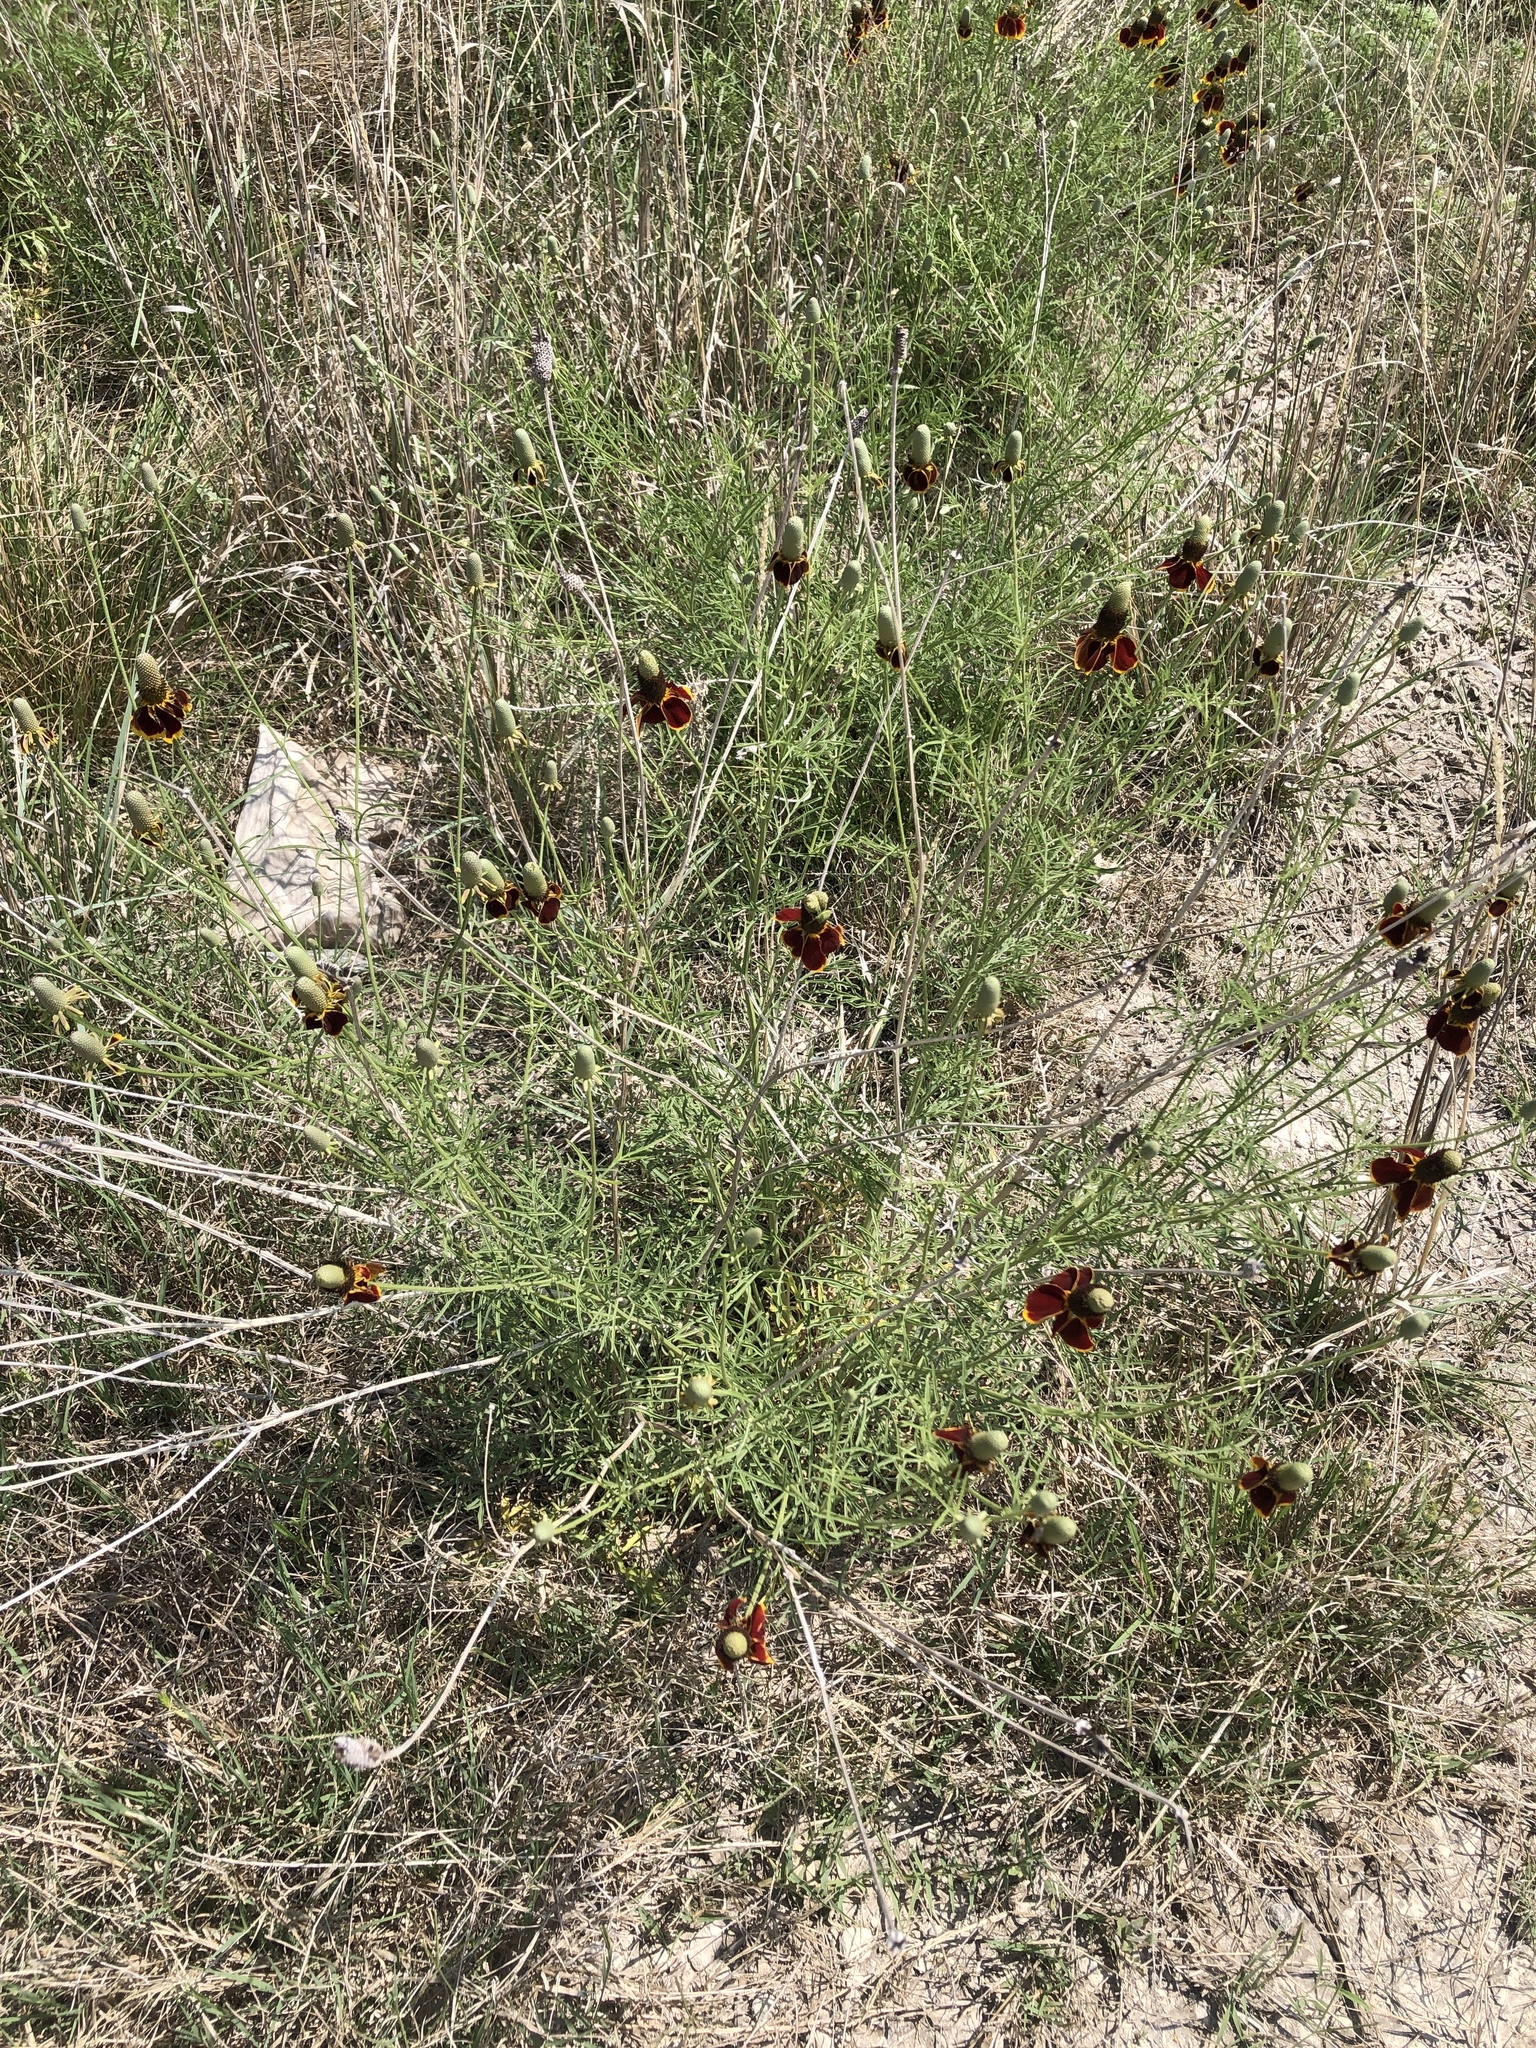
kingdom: Plantae
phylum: Tracheophyta
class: Magnoliopsida
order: Asterales
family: Asteraceae
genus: Ratibida
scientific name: Ratibida columnifera
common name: Prairie coneflower
